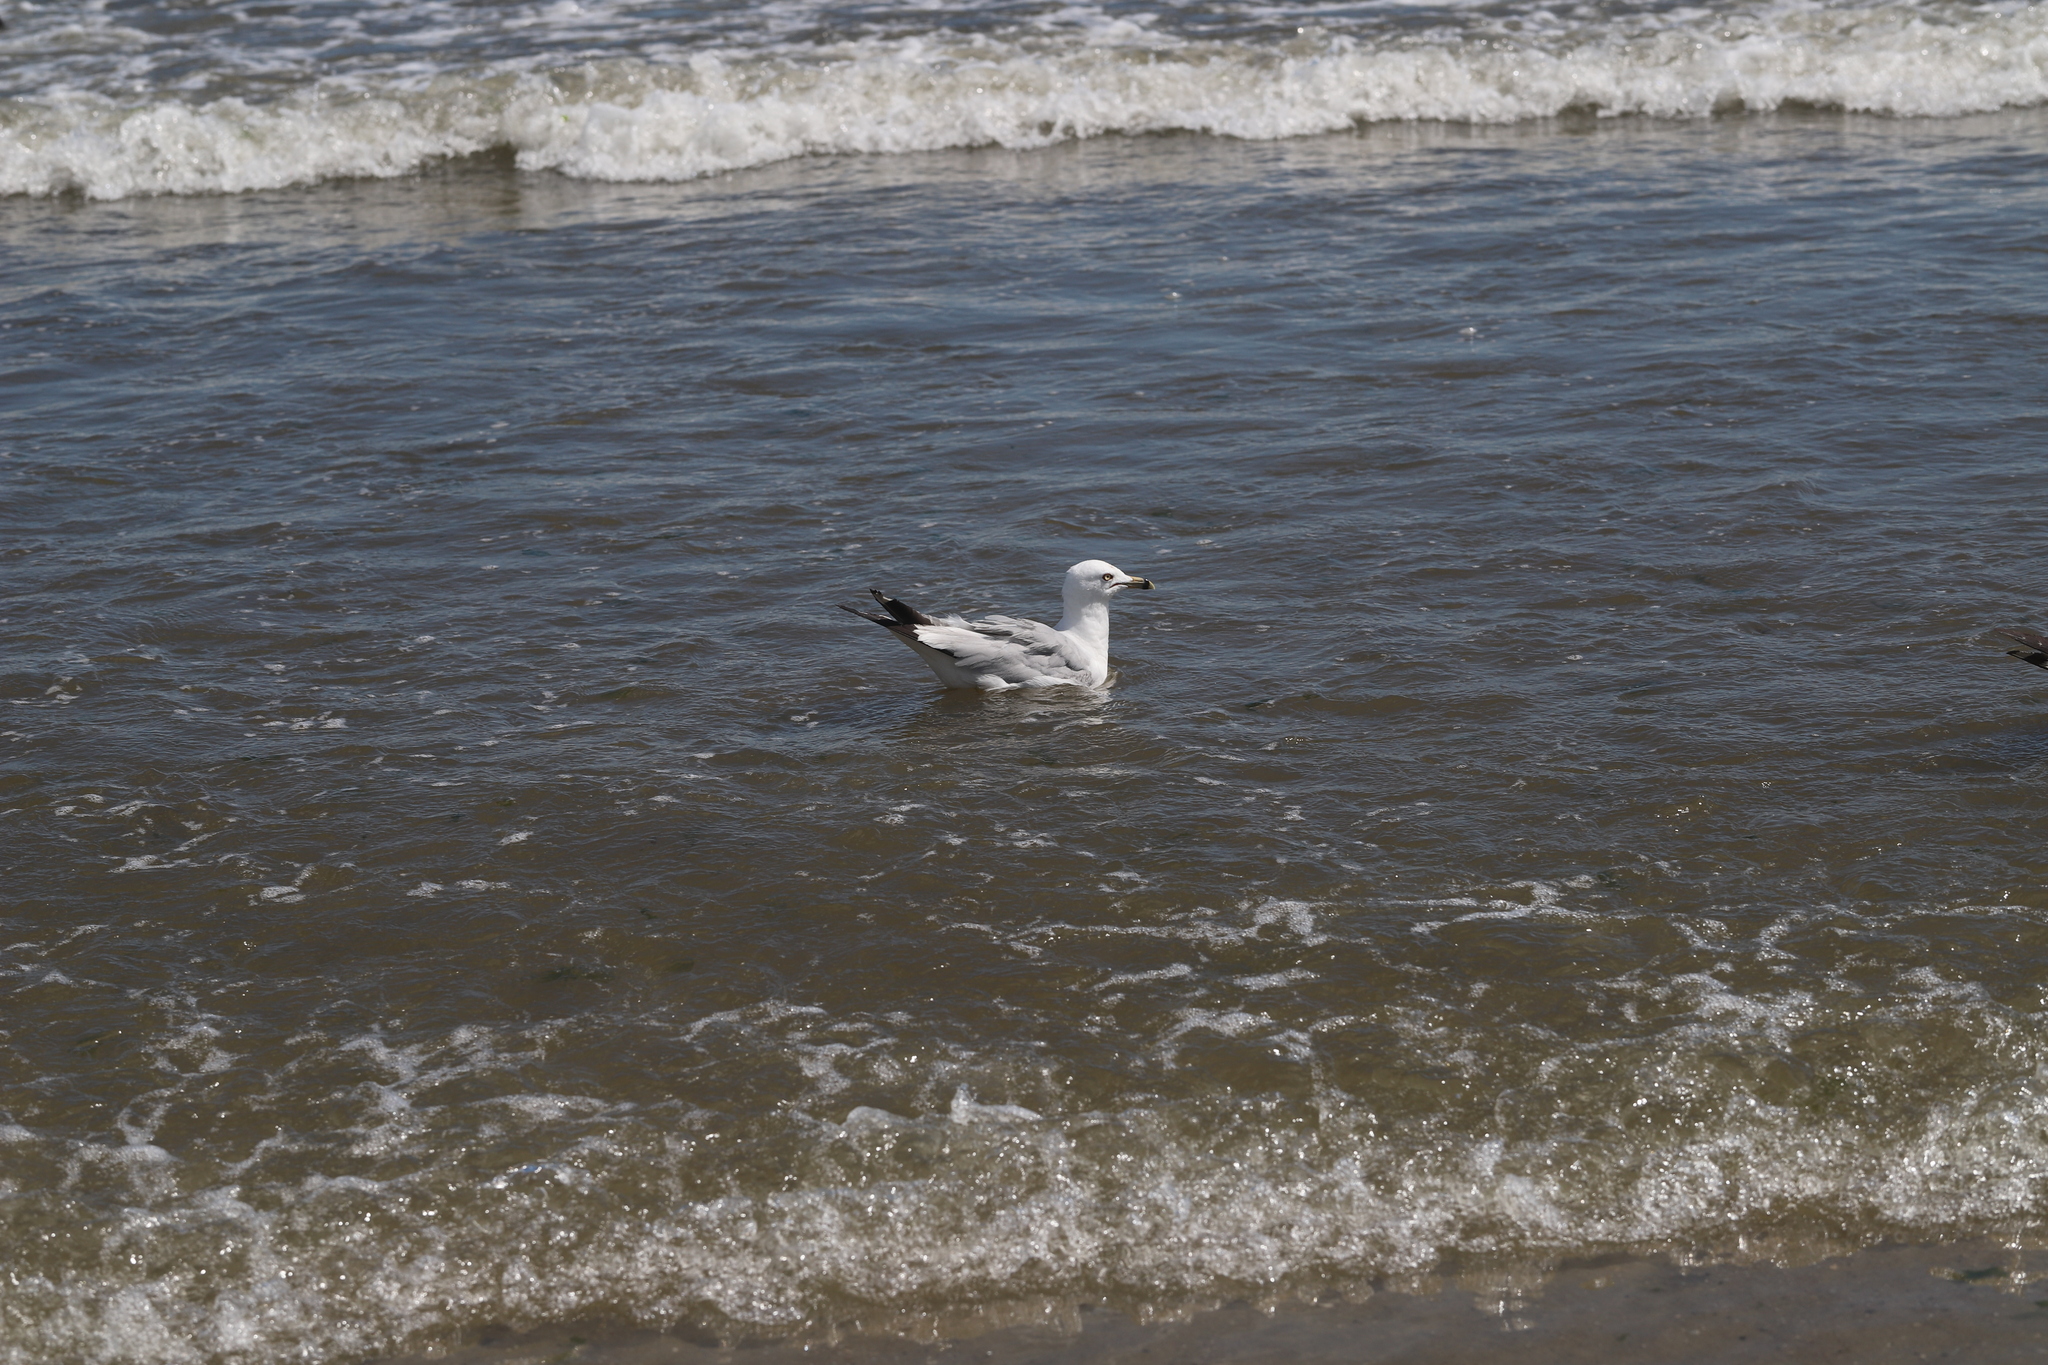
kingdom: Animalia
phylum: Chordata
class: Aves
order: Charadriiformes
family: Laridae
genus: Larus
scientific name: Larus delawarensis
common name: Ring-billed gull
